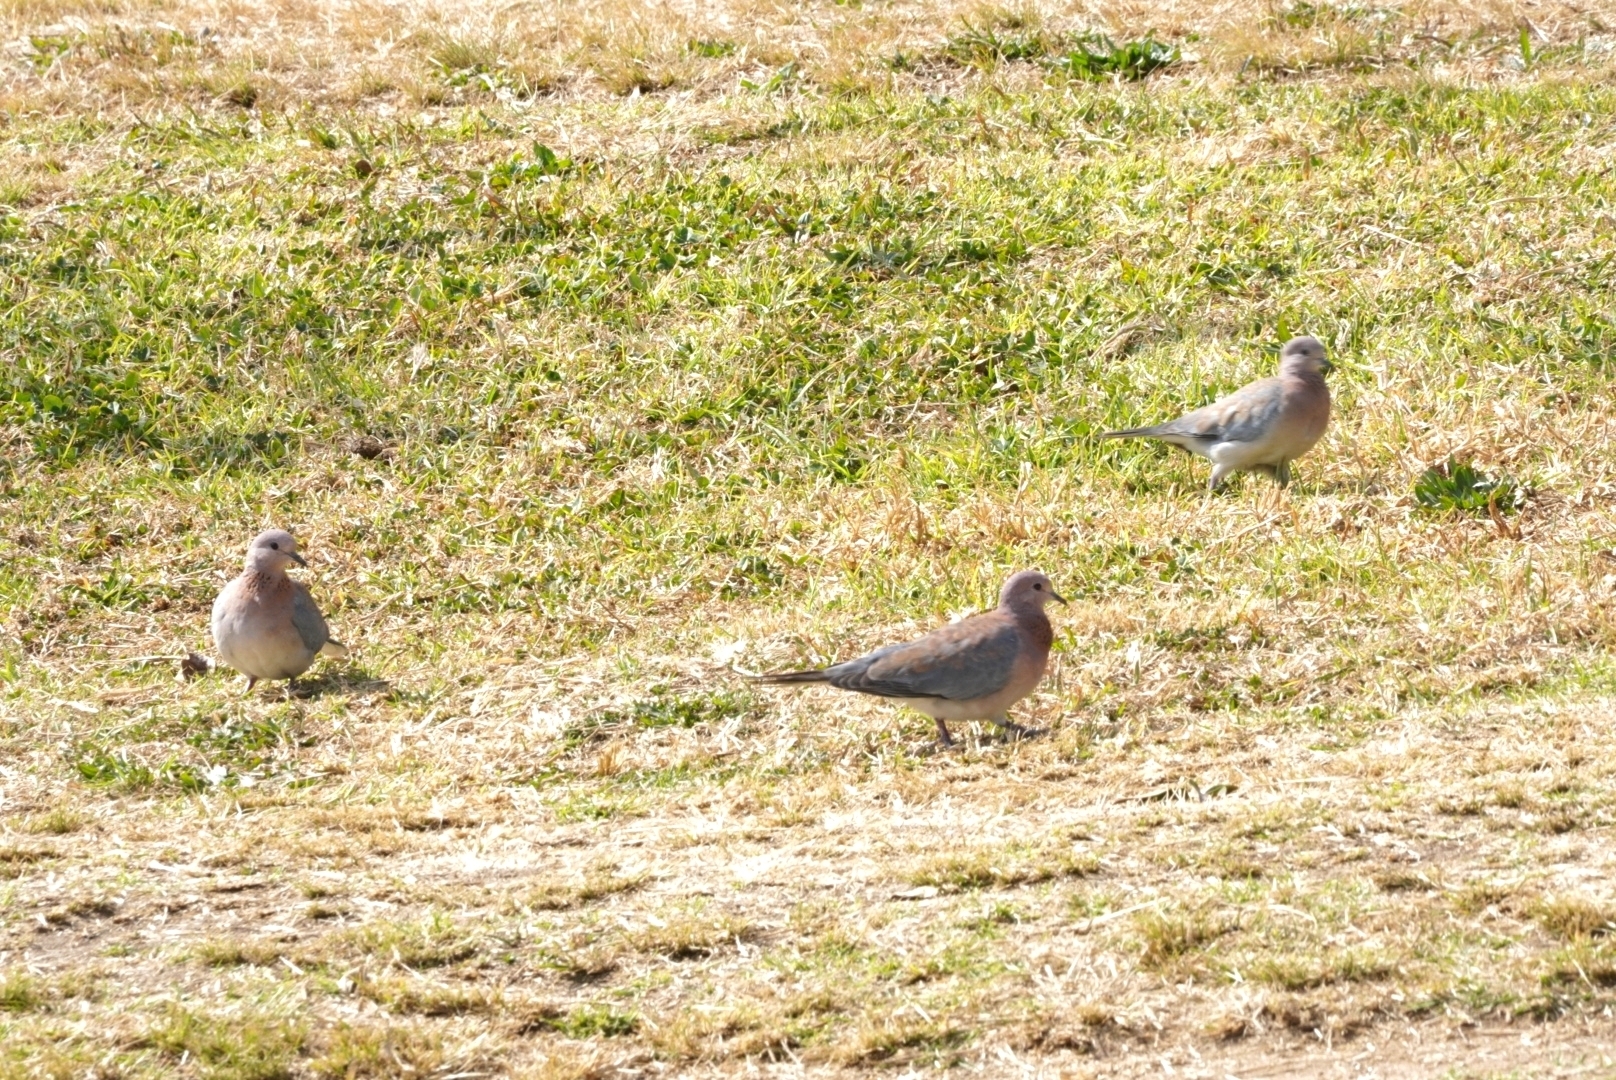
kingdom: Animalia
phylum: Chordata
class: Aves
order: Columbiformes
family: Columbidae
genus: Spilopelia
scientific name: Spilopelia senegalensis
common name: Laughing dove
